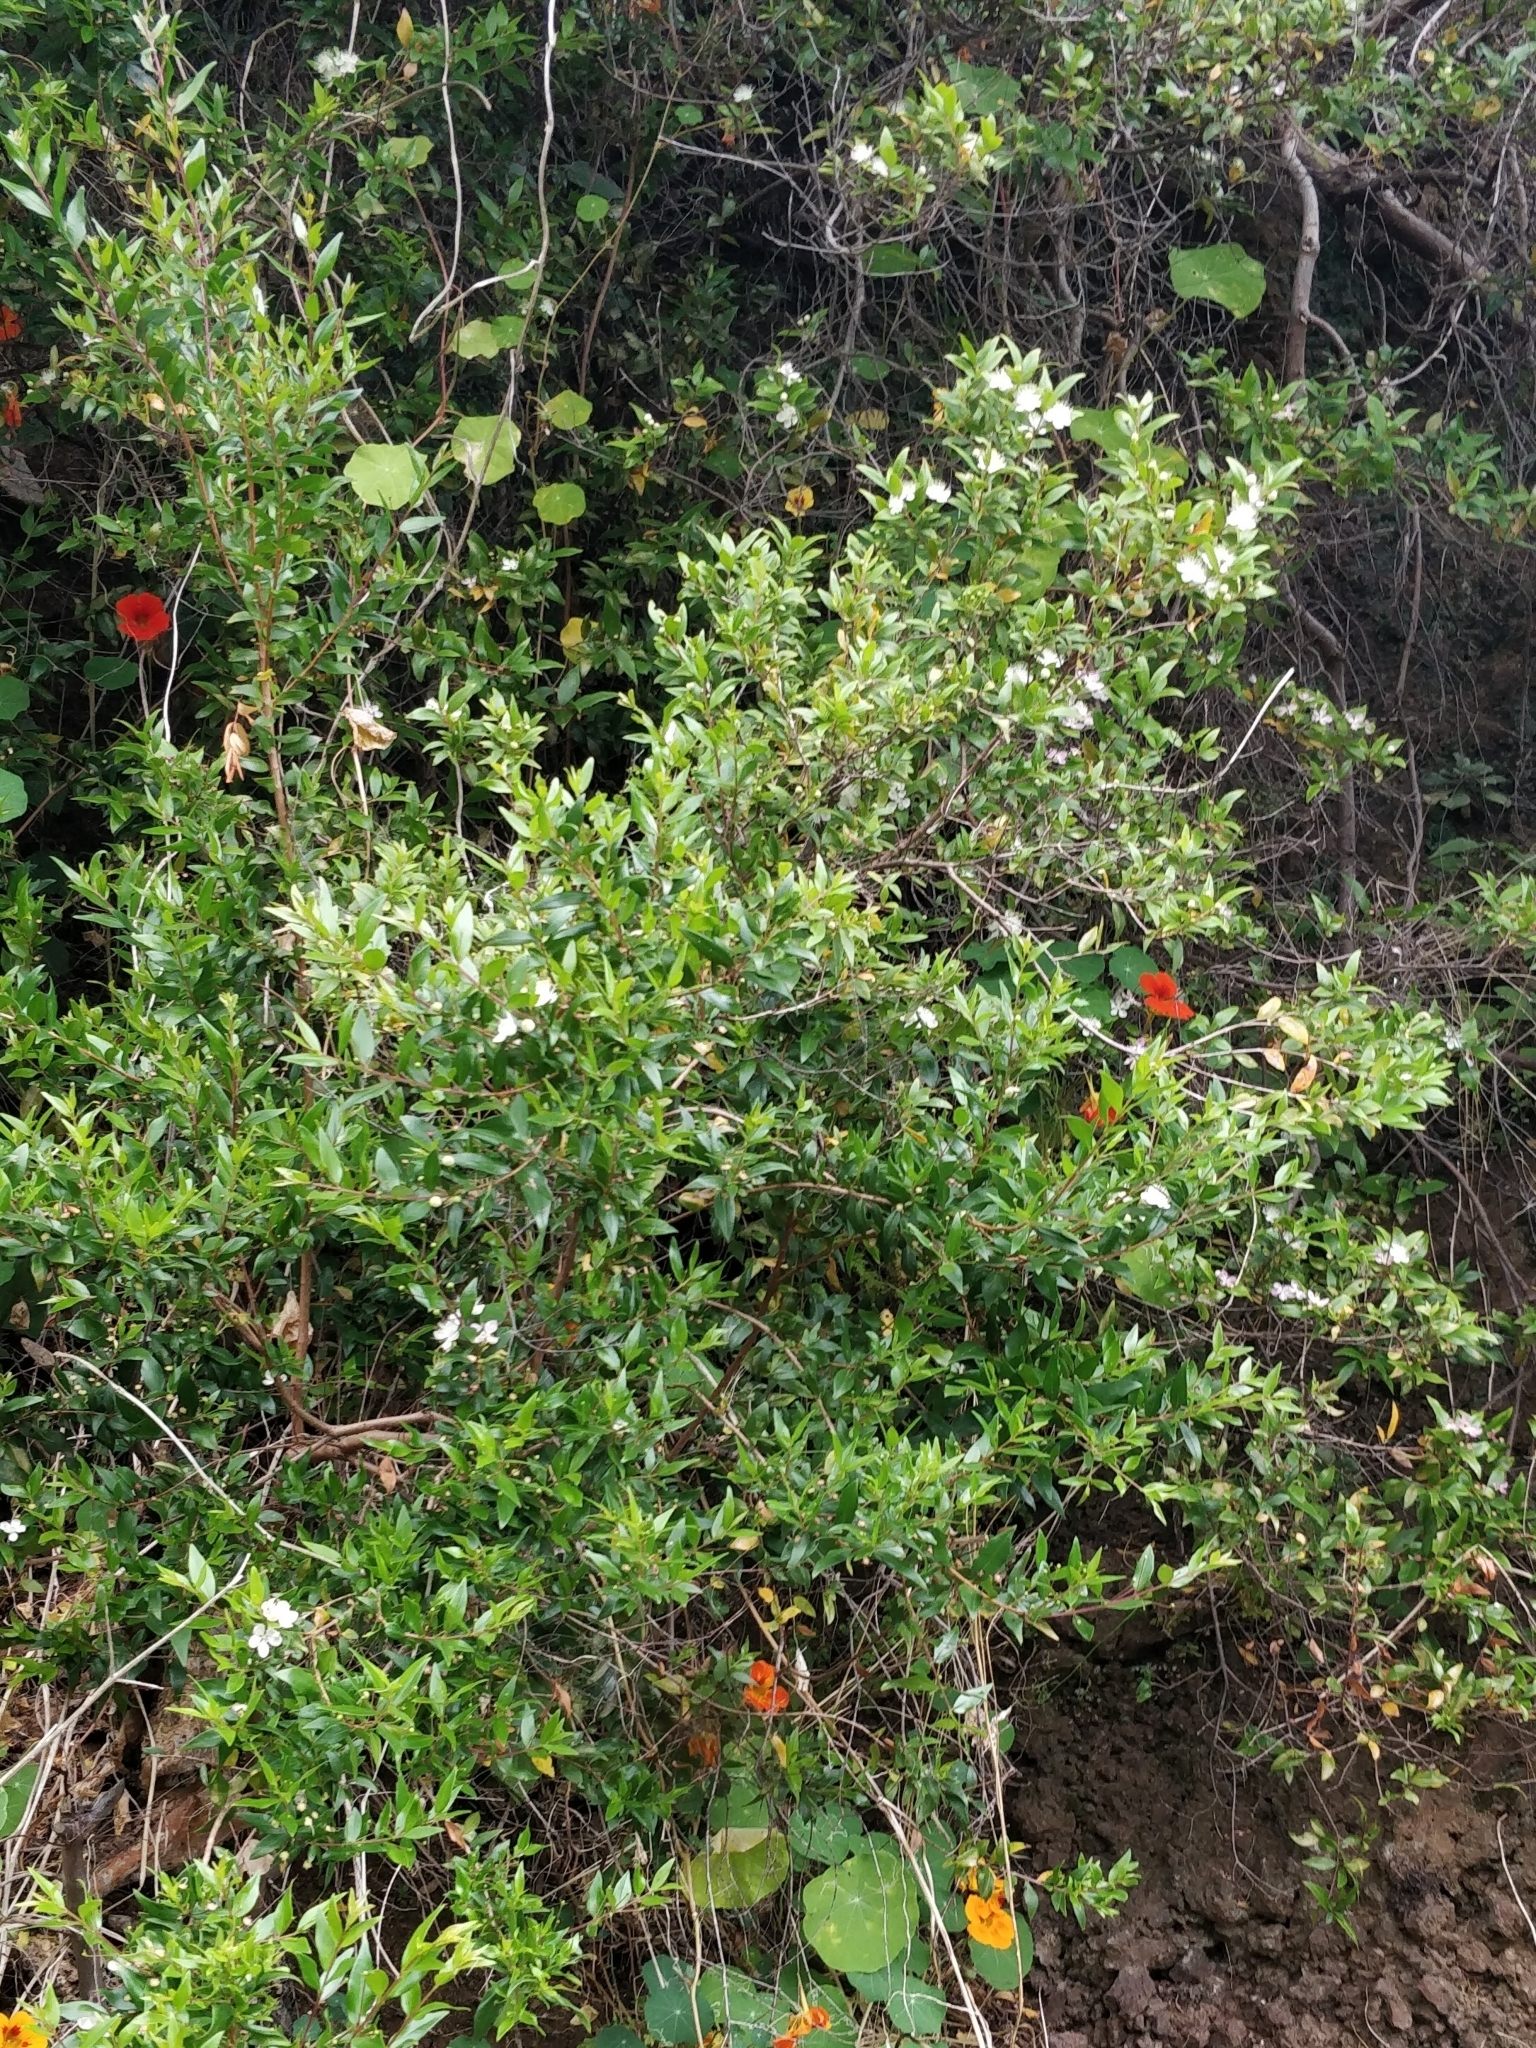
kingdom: Plantae
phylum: Tracheophyta
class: Magnoliopsida
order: Myrtales
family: Myrtaceae
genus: Myrtus
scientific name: Myrtus communis
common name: Myrtle
